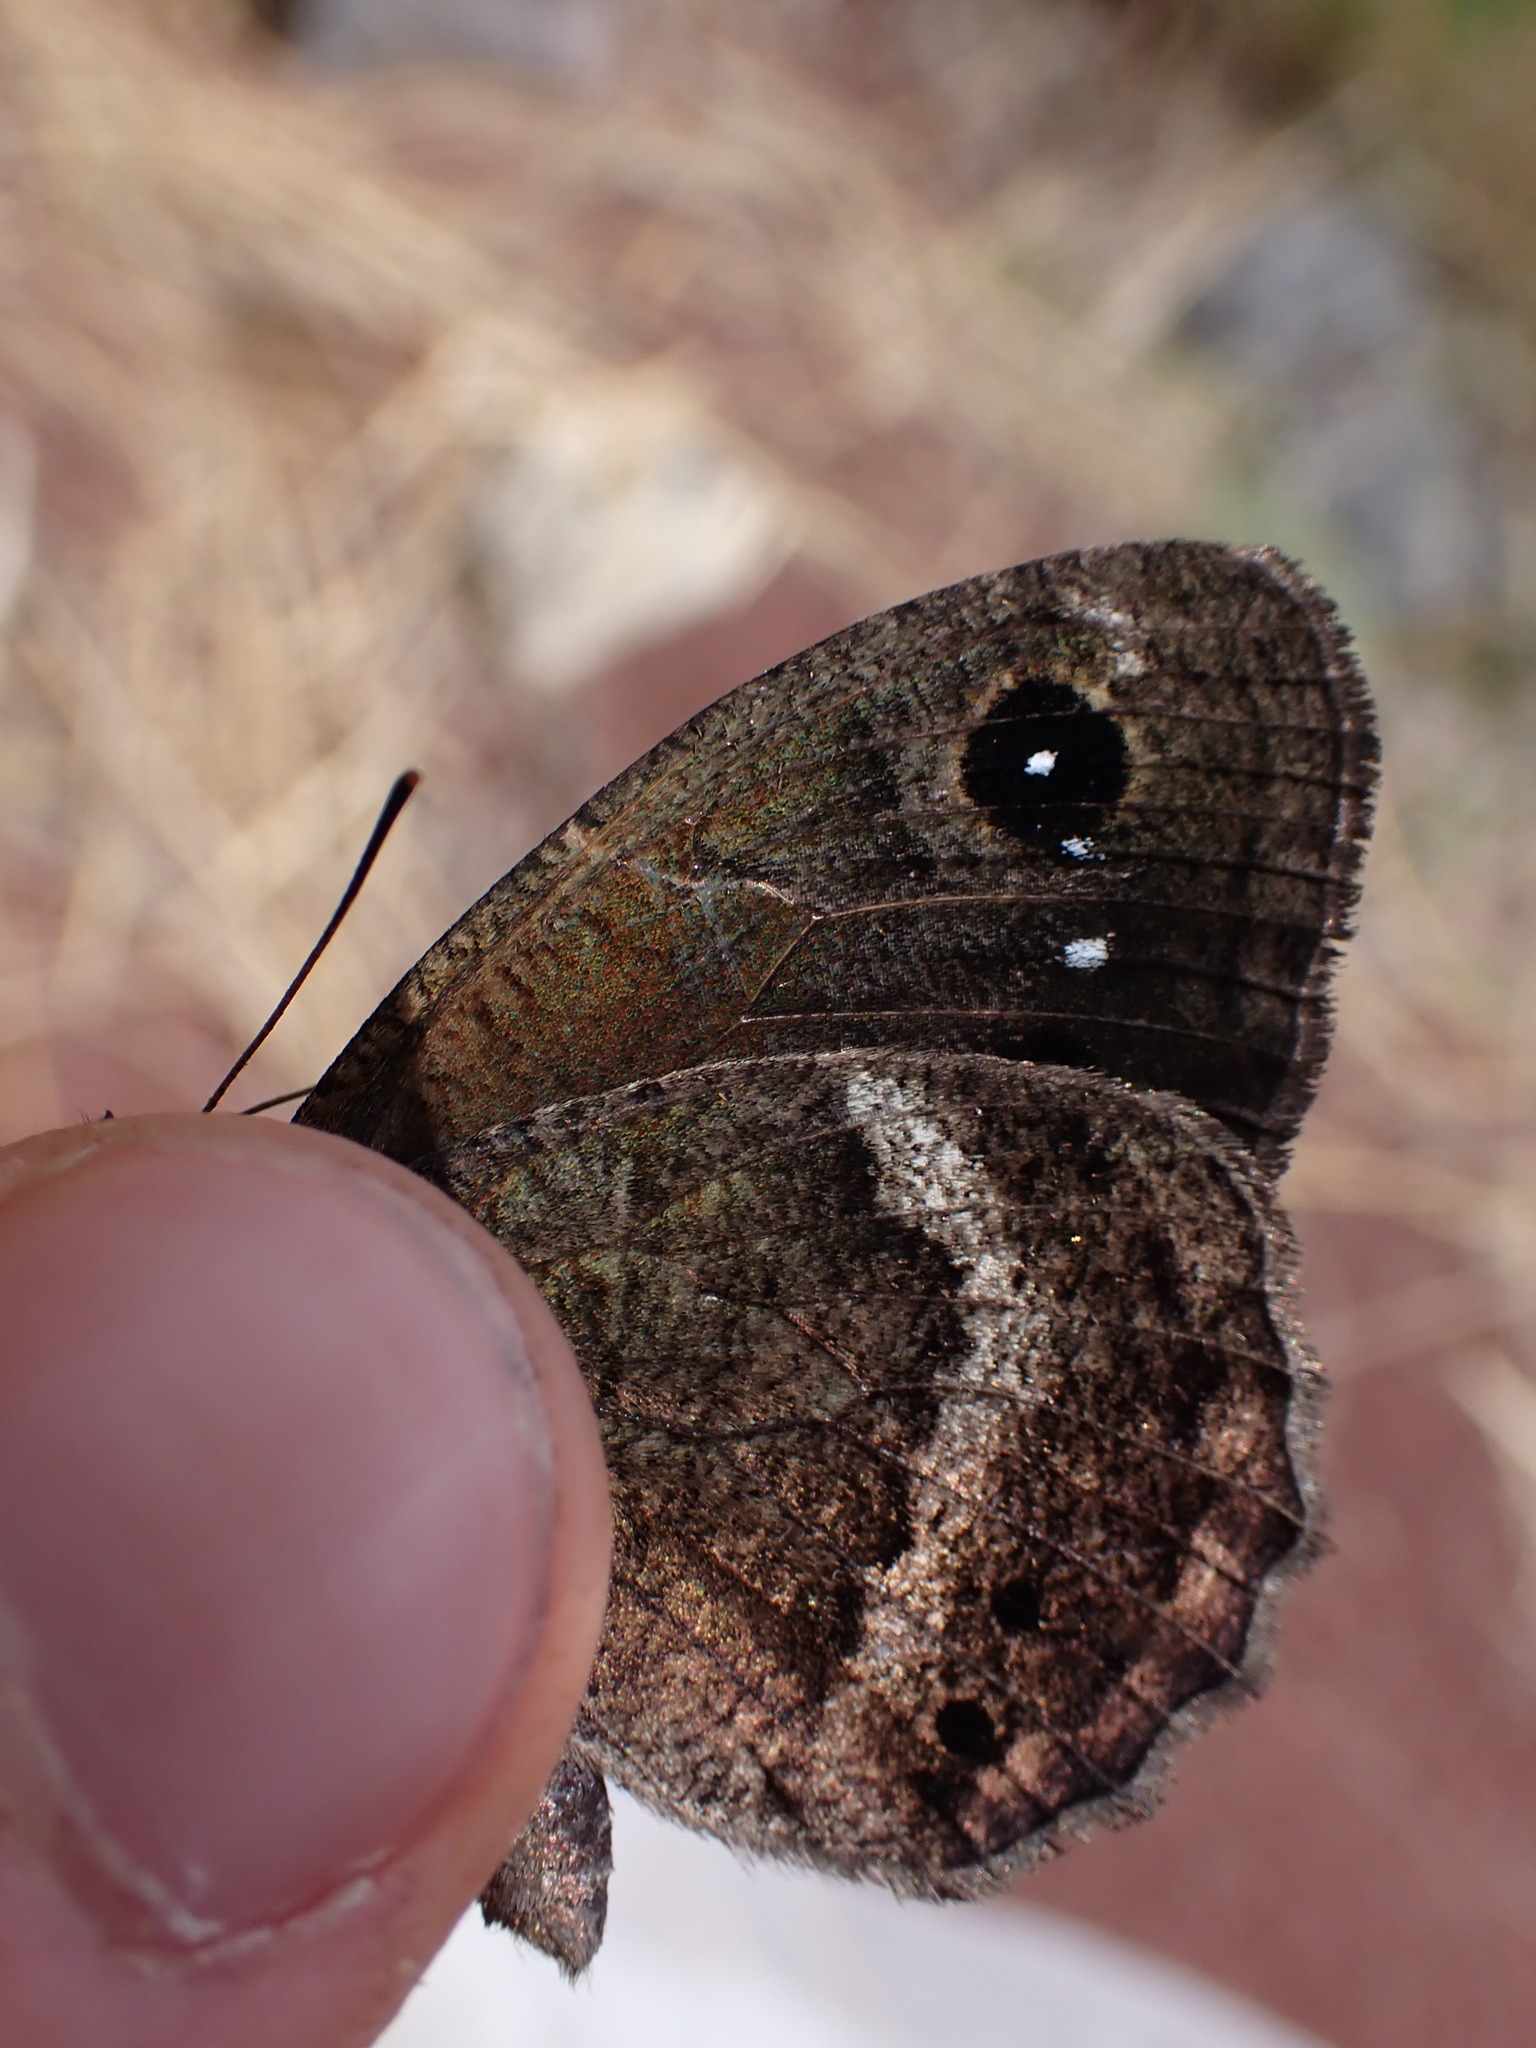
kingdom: Animalia
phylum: Arthropoda
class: Insecta
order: Lepidoptera
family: Nymphalidae
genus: Satyrus
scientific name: Satyrus ferula
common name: Great sooty satyr
